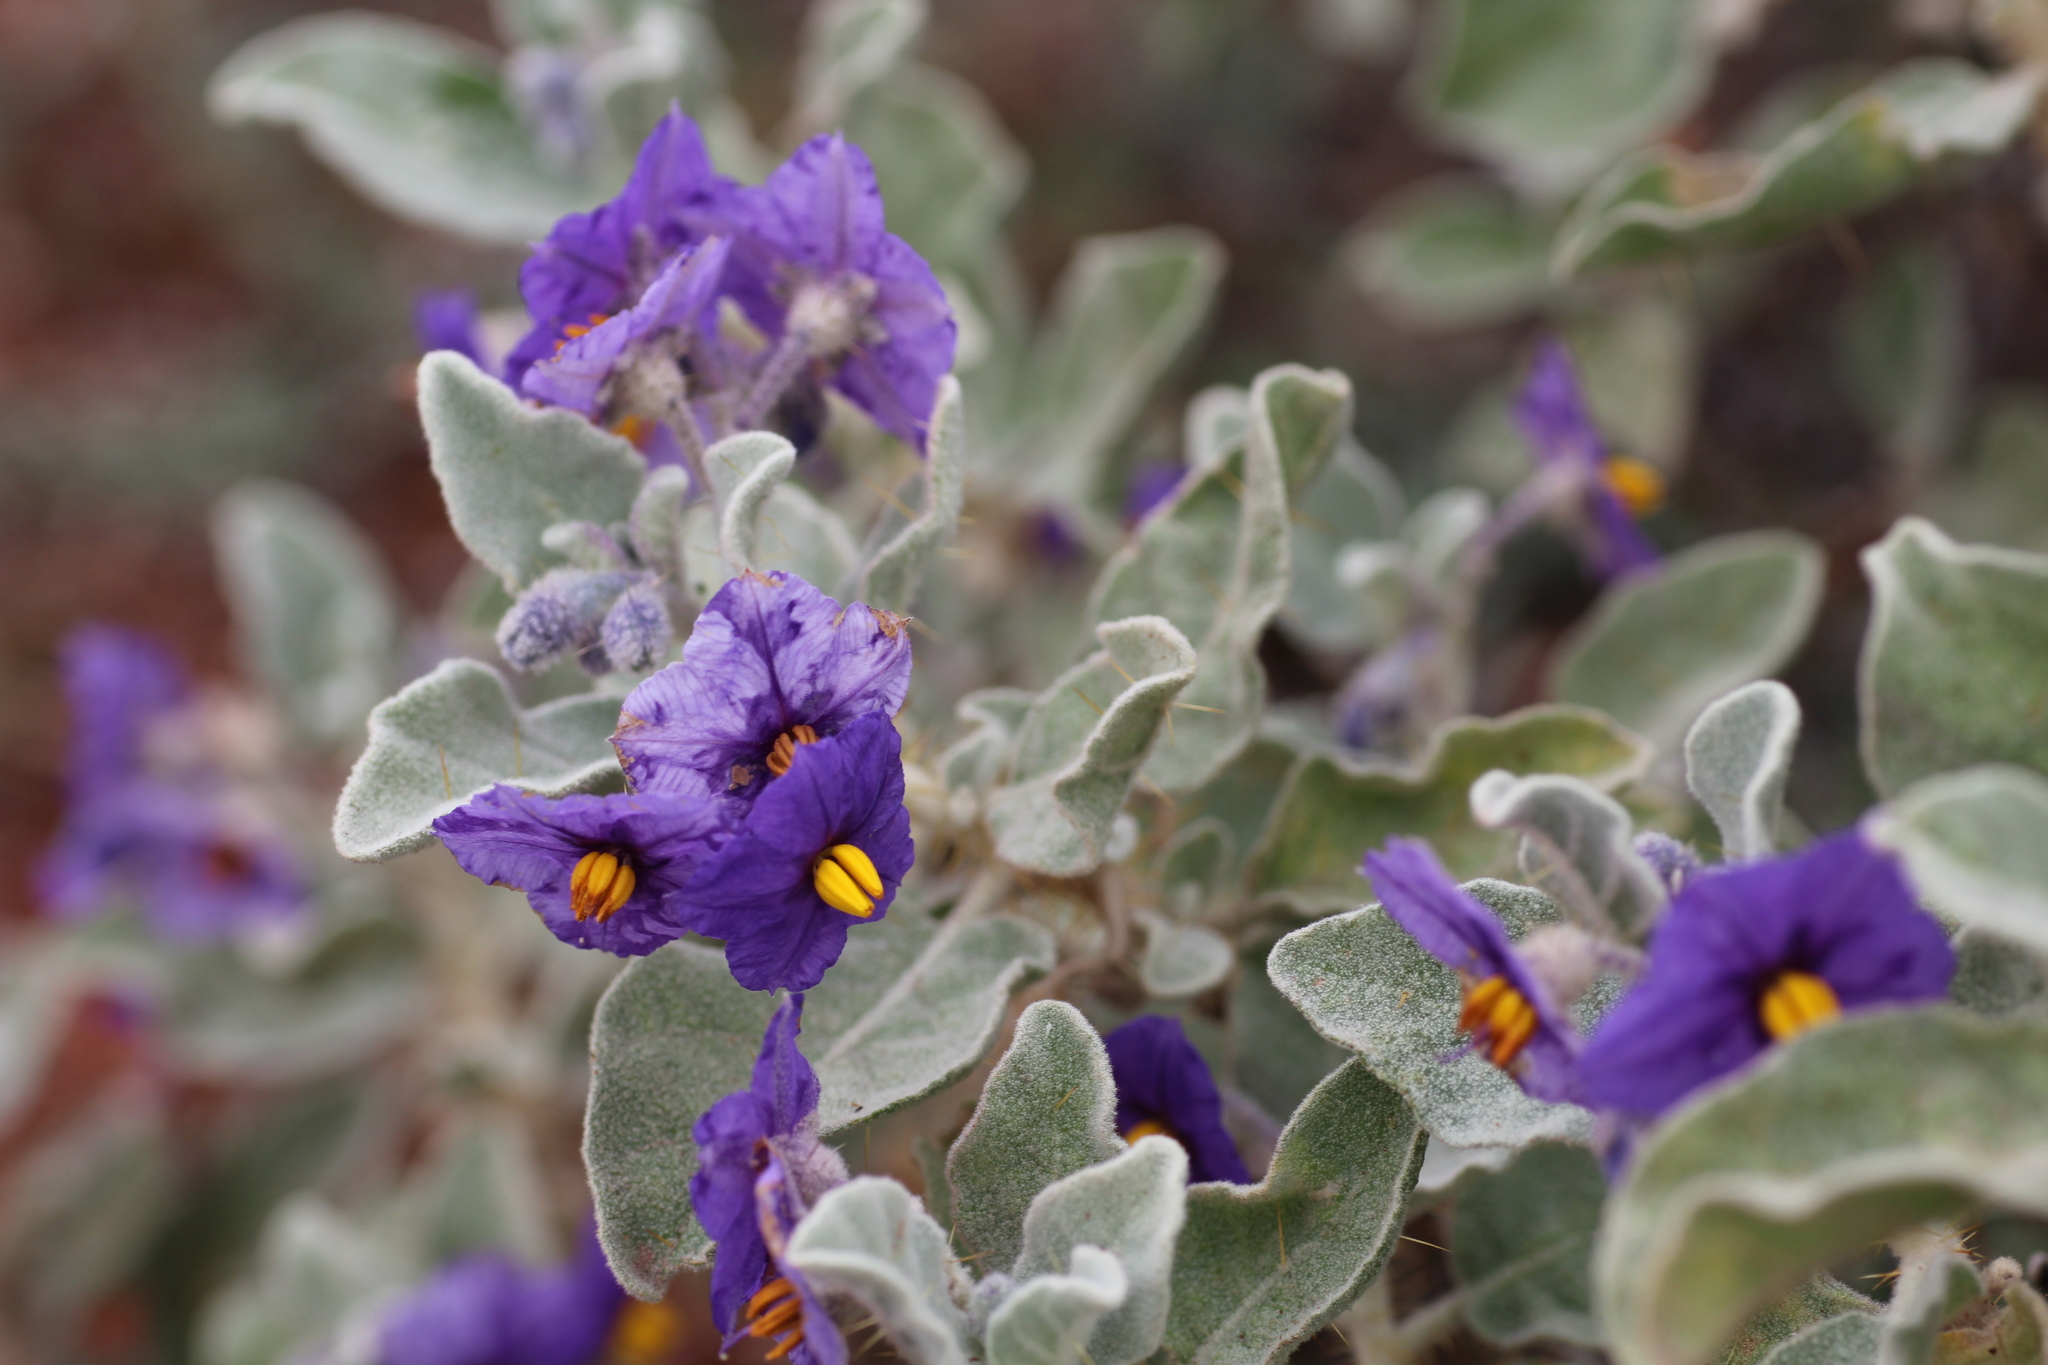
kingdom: Plantae
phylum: Tracheophyta
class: Magnoliopsida
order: Solanales
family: Solanaceae
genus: Solanum
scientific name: Solanum lasiophyllum
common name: Flannelbush
